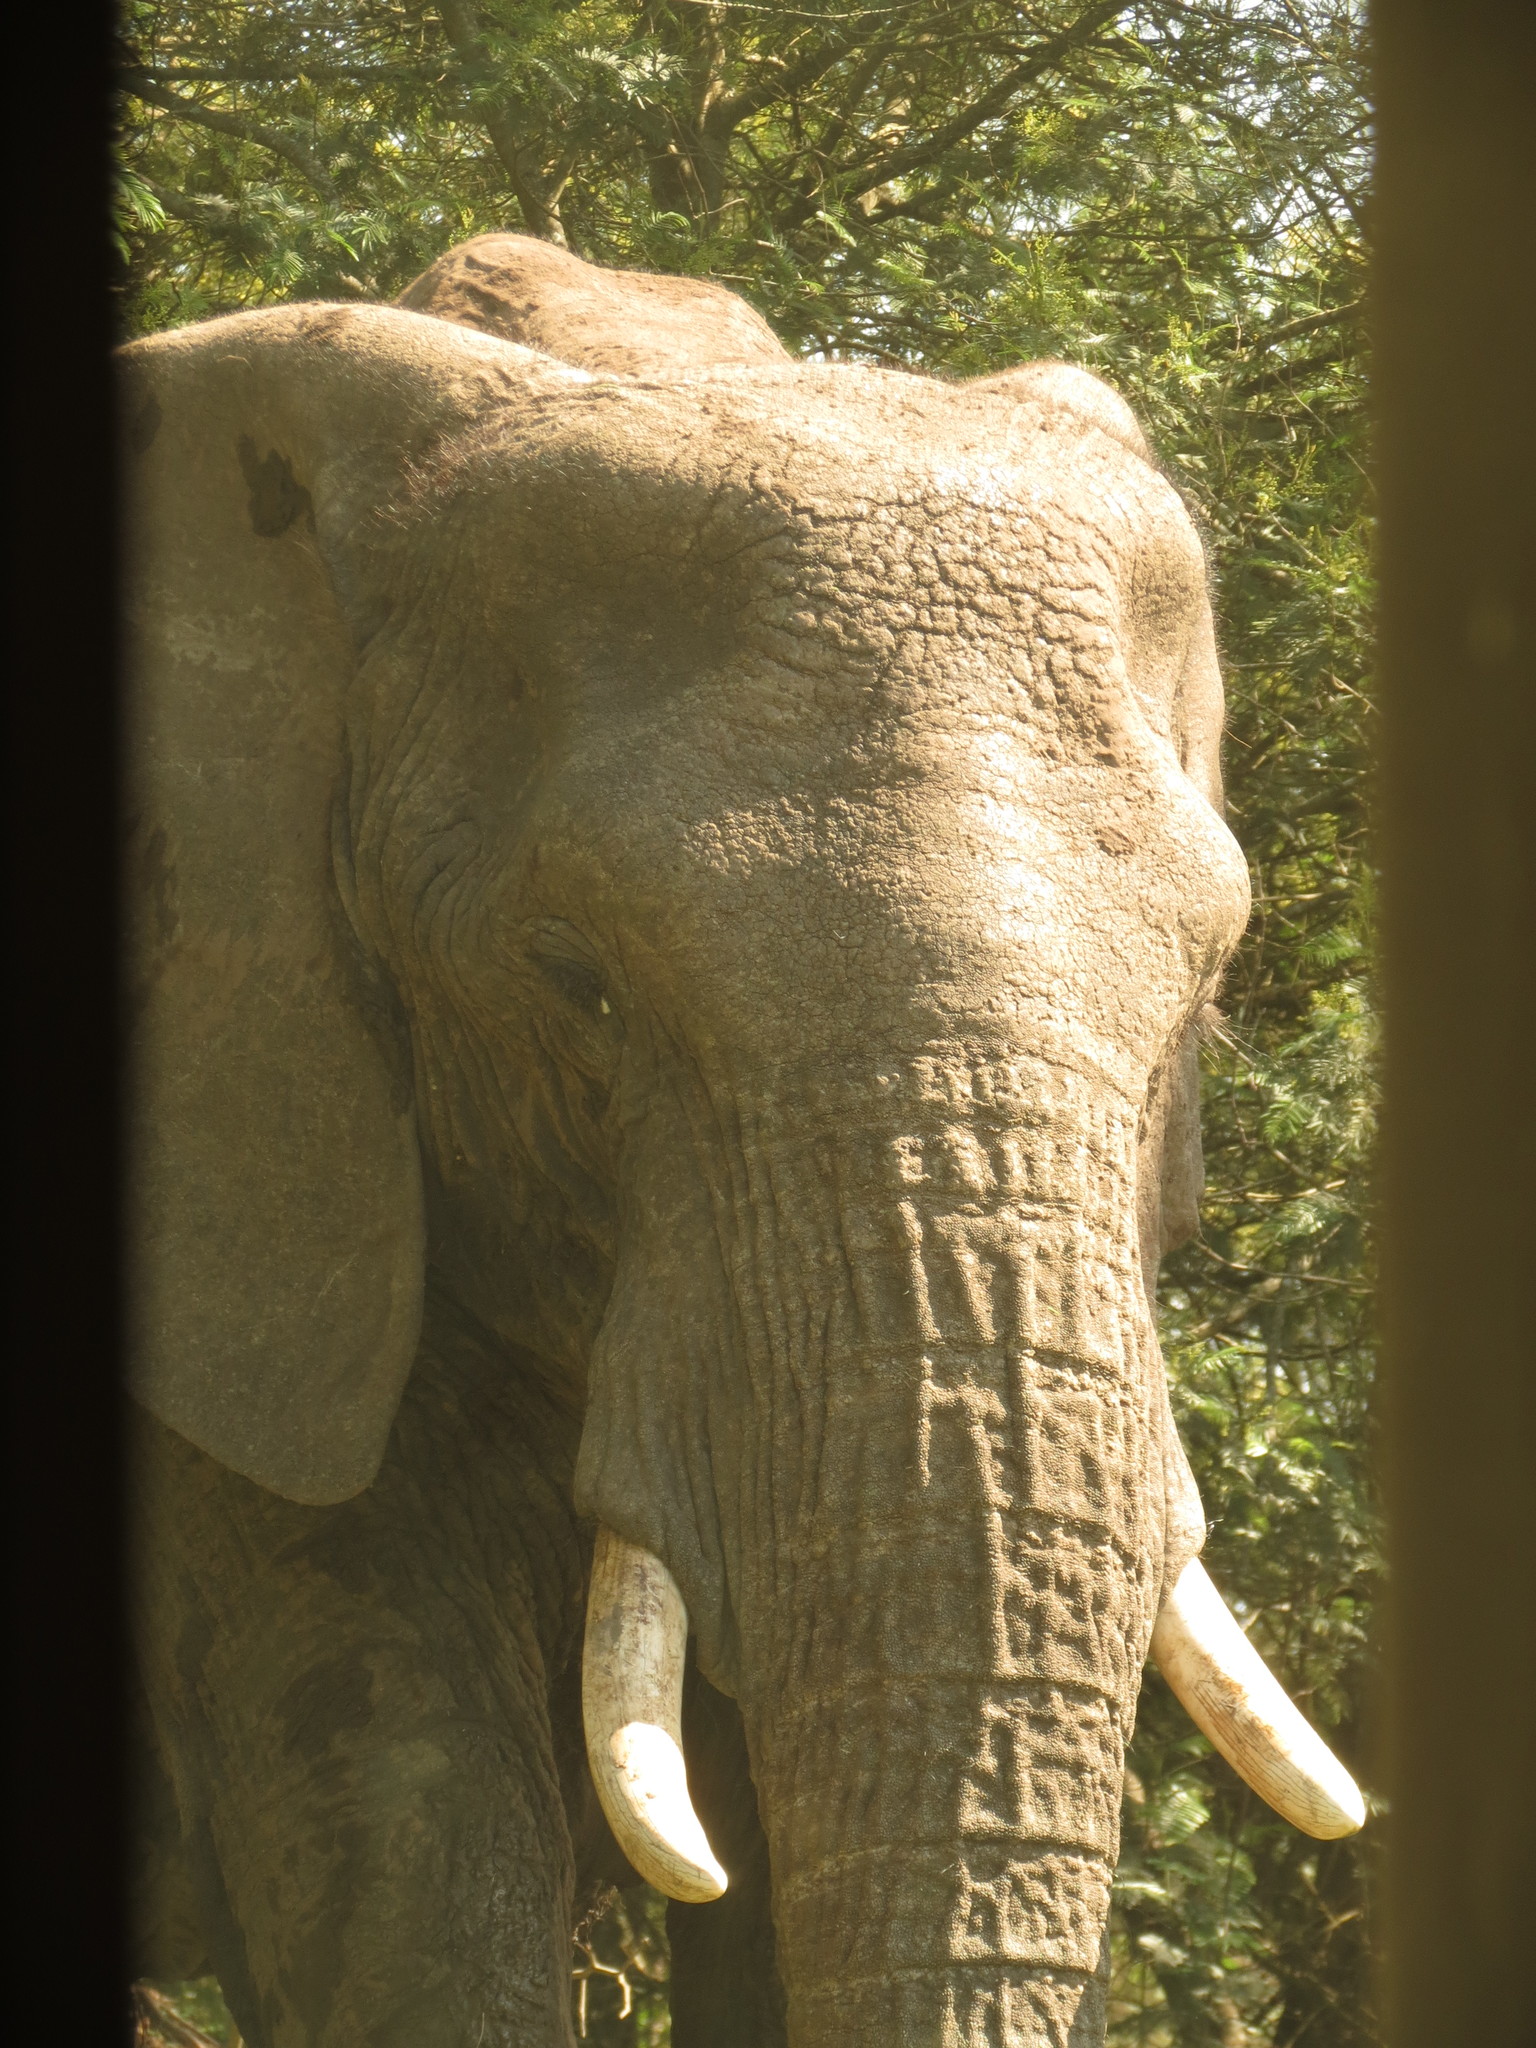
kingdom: Animalia
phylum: Chordata
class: Mammalia
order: Proboscidea
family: Elephantidae
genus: Loxodonta
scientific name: Loxodonta africana
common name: African elephant
